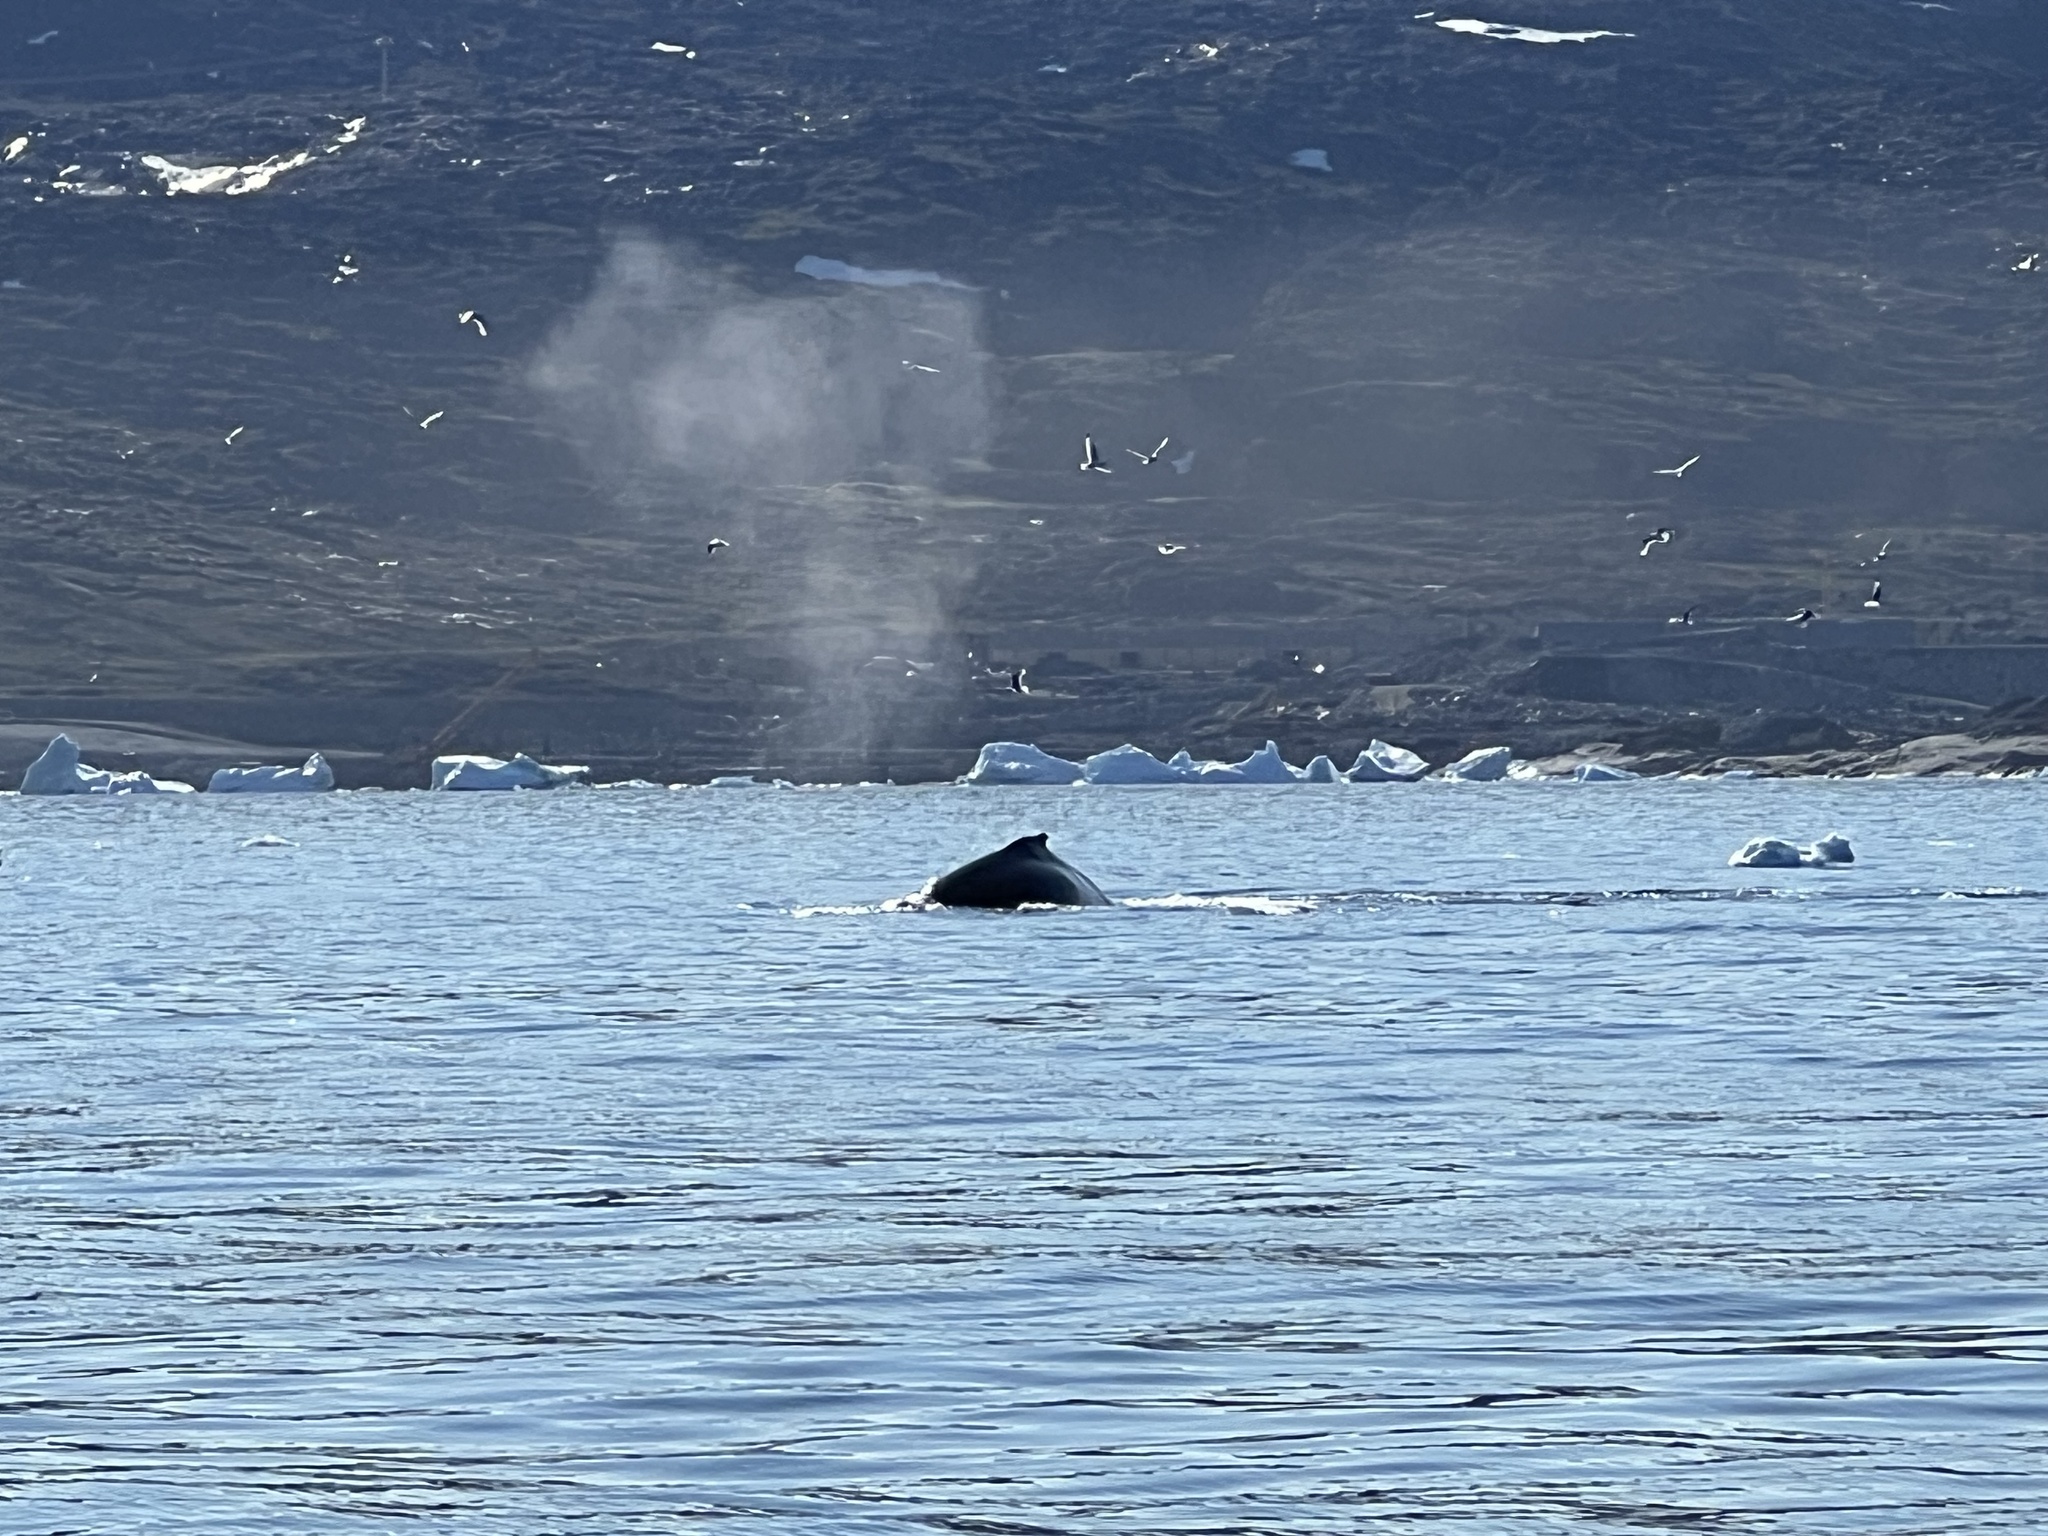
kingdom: Animalia
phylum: Chordata
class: Mammalia
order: Cetacea
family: Balaenopteridae
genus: Megaptera
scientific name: Megaptera novaeangliae
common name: Humpback whale
